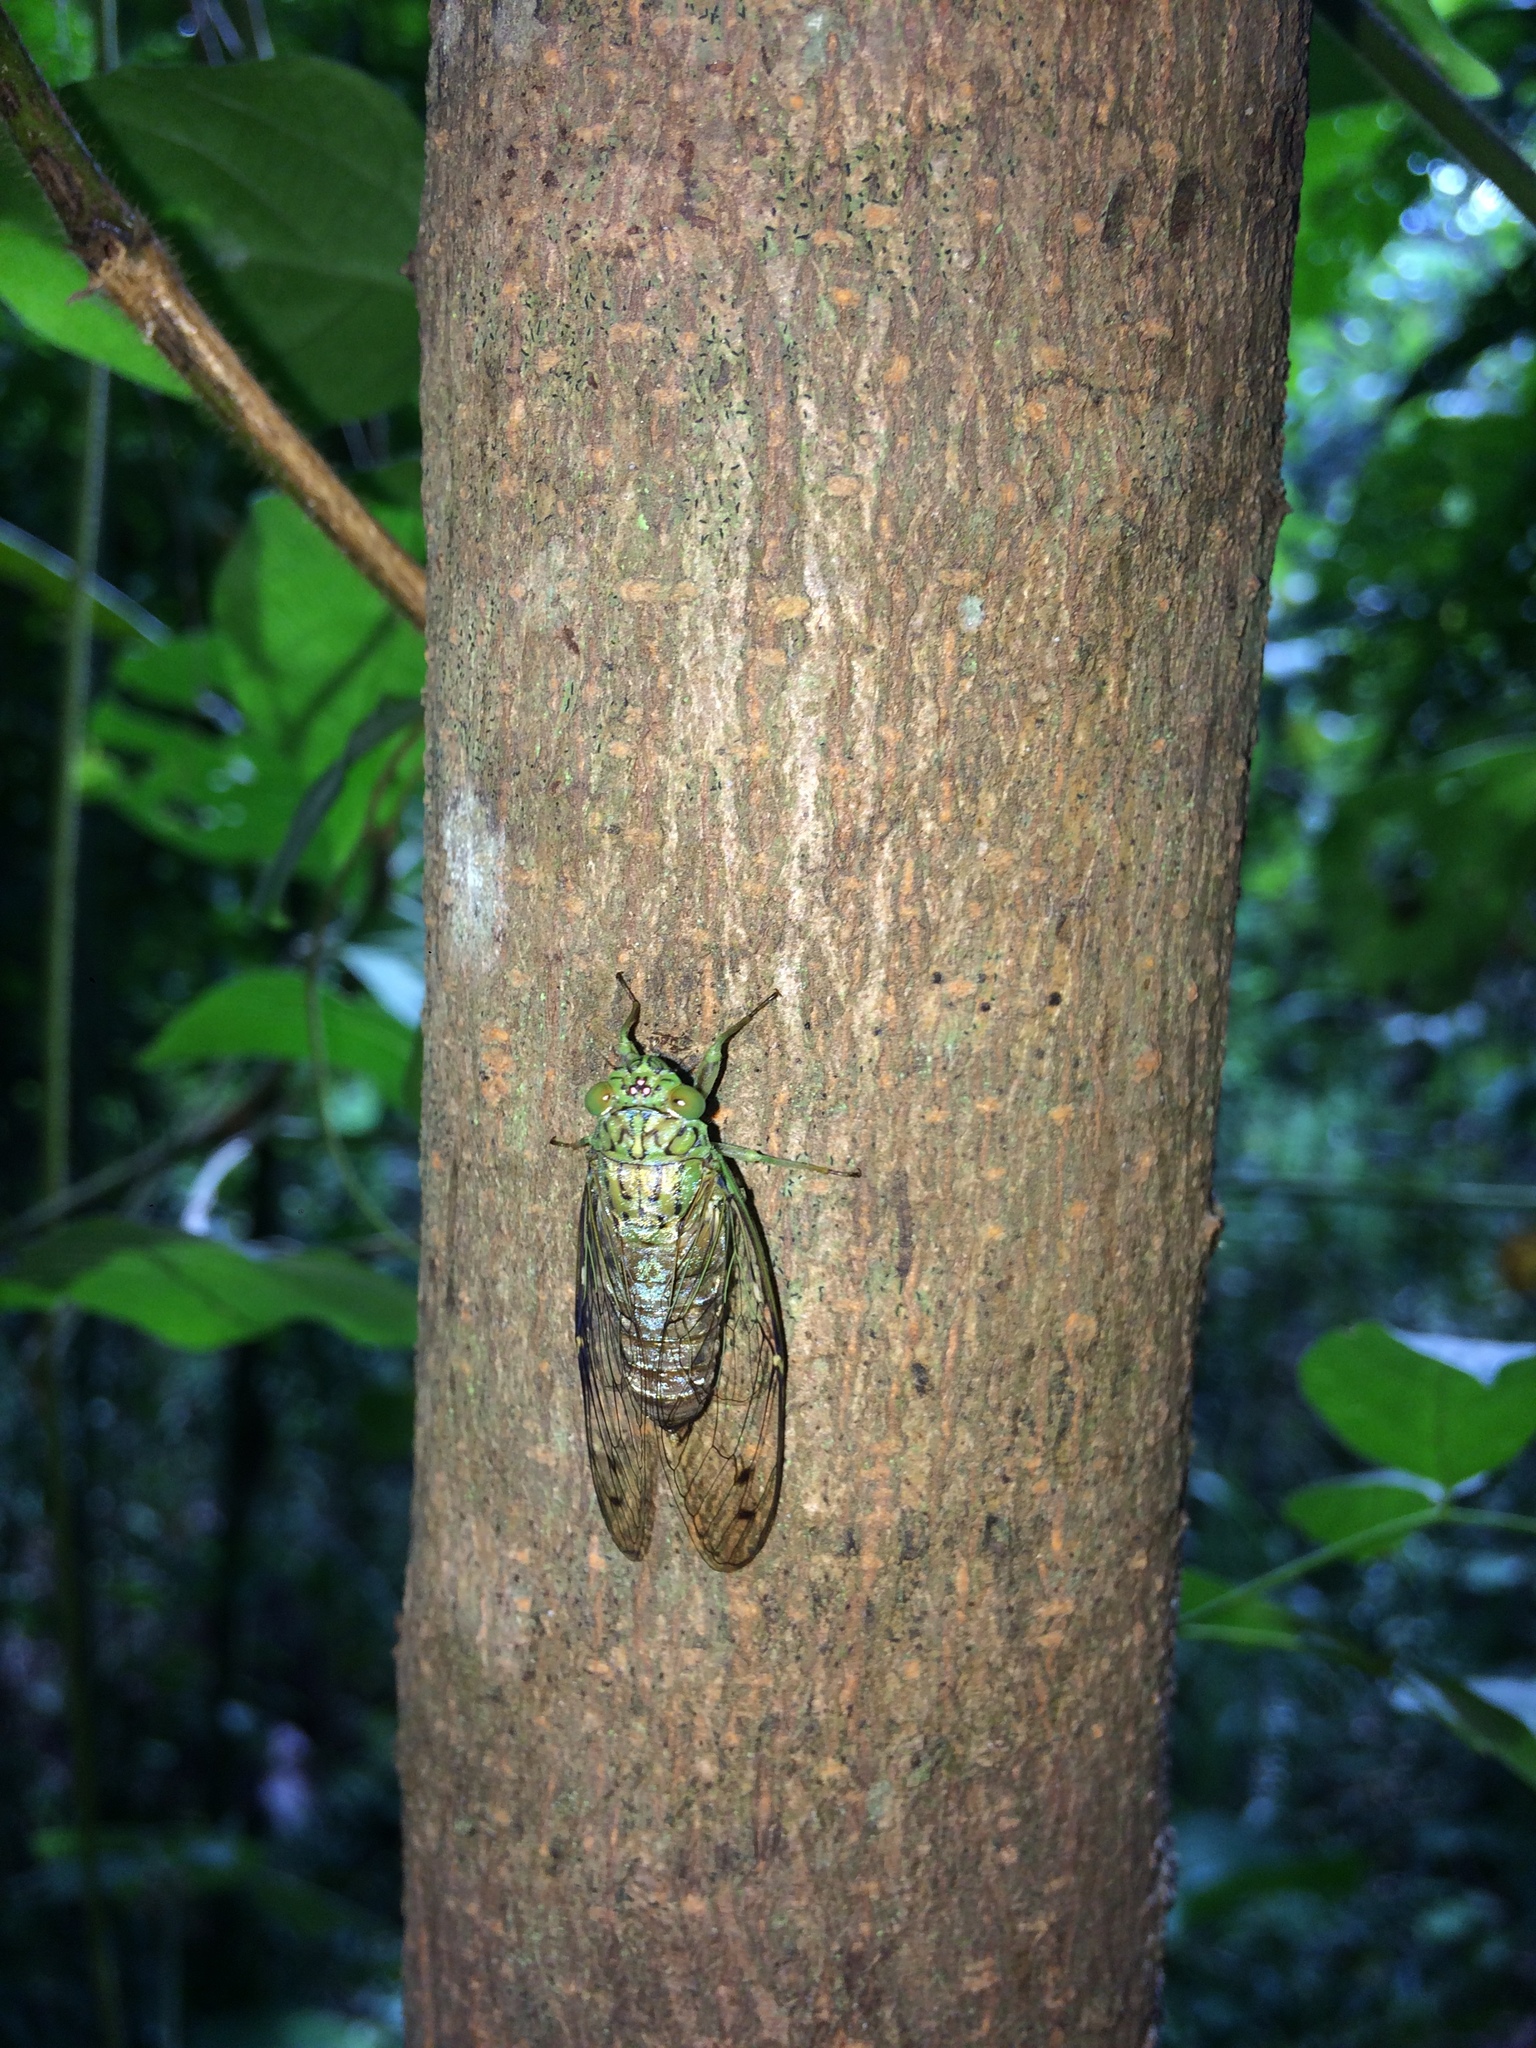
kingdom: Animalia
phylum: Arthropoda
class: Insecta
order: Hemiptera
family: Cicadidae
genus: Purana
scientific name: Purana crassinotata
